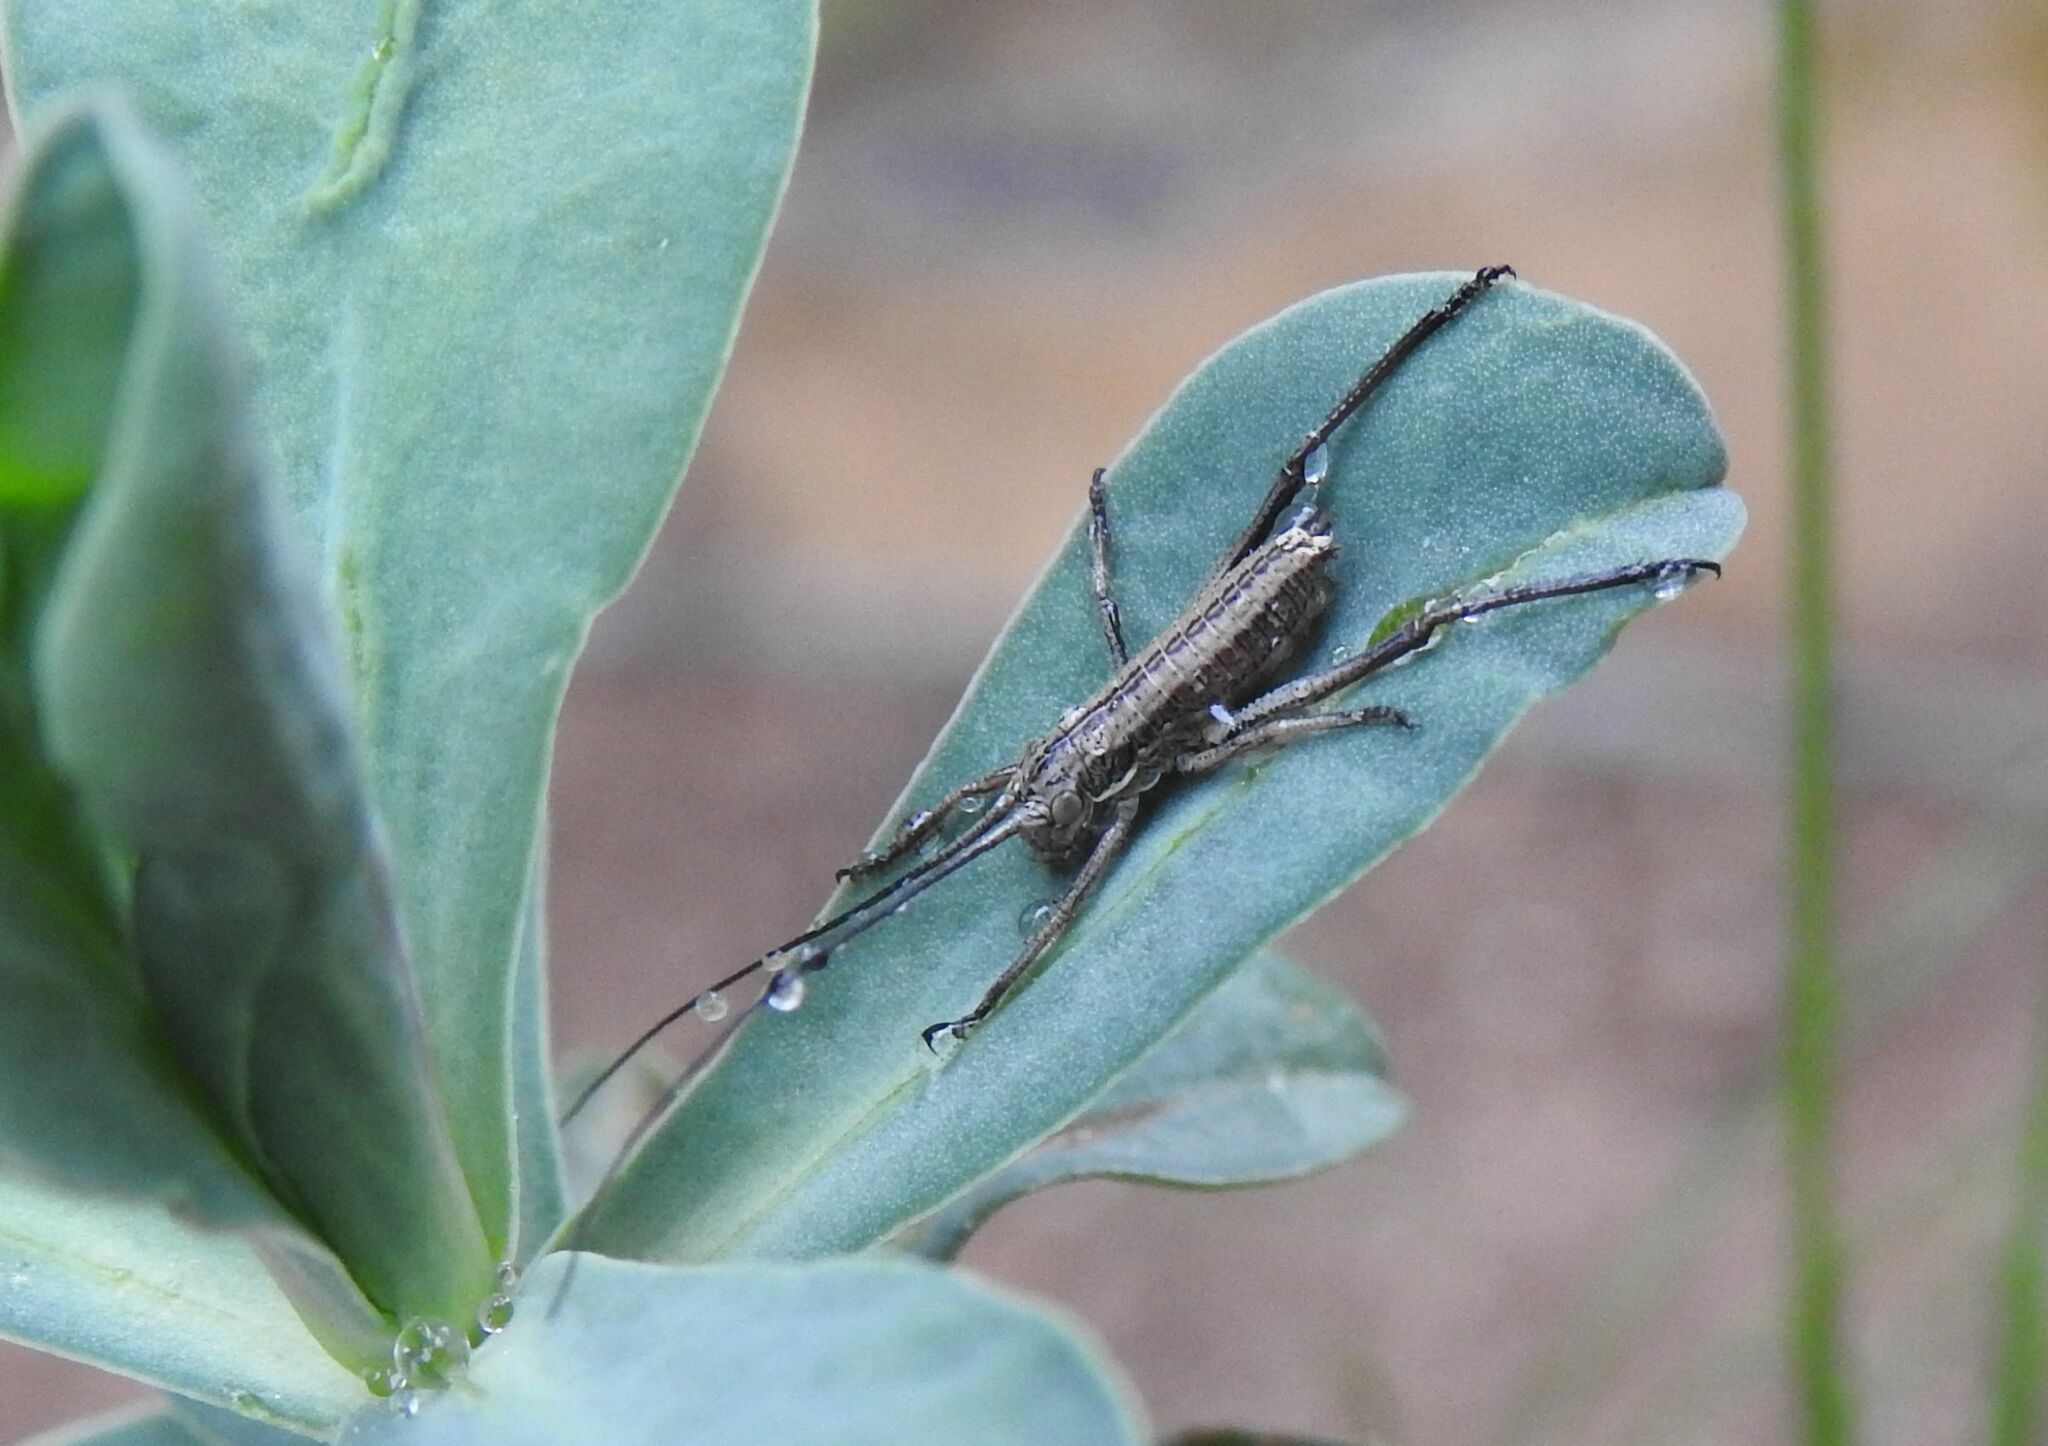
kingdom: Animalia
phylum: Arthropoda
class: Insecta
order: Orthoptera
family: Tettigoniidae
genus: Ephippiger
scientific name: Ephippiger diurnus
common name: Western saddle bush-cricket
